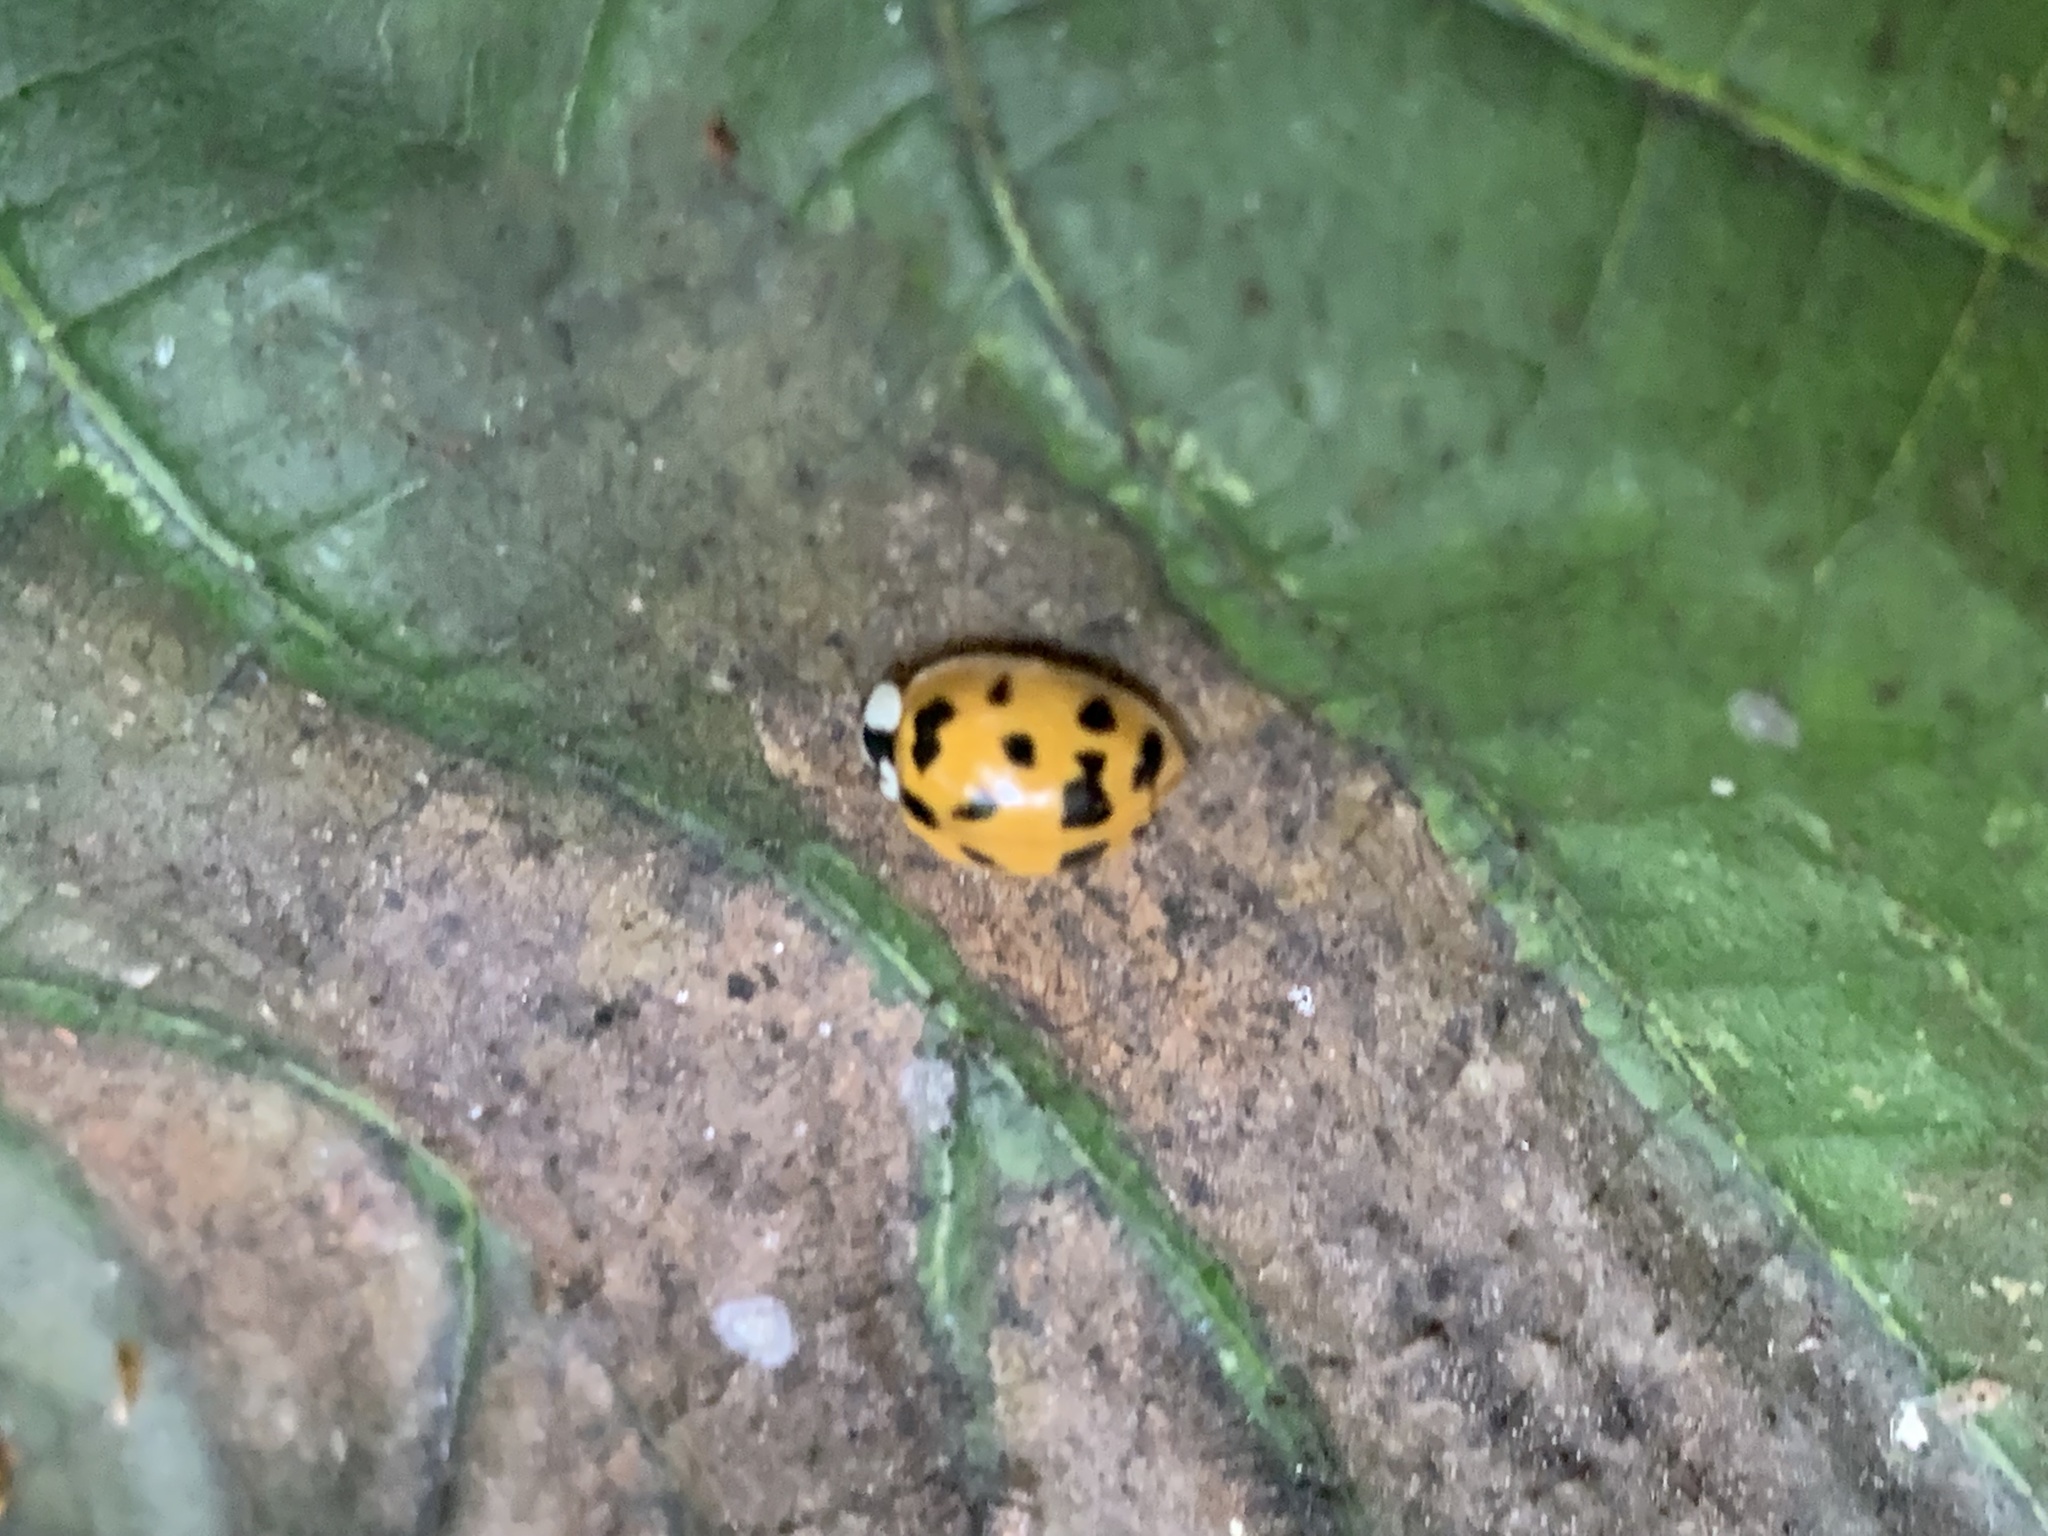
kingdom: Animalia
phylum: Arthropoda
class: Insecta
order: Coleoptera
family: Coccinellidae
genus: Harmonia
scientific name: Harmonia axyridis
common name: Harlequin ladybird
